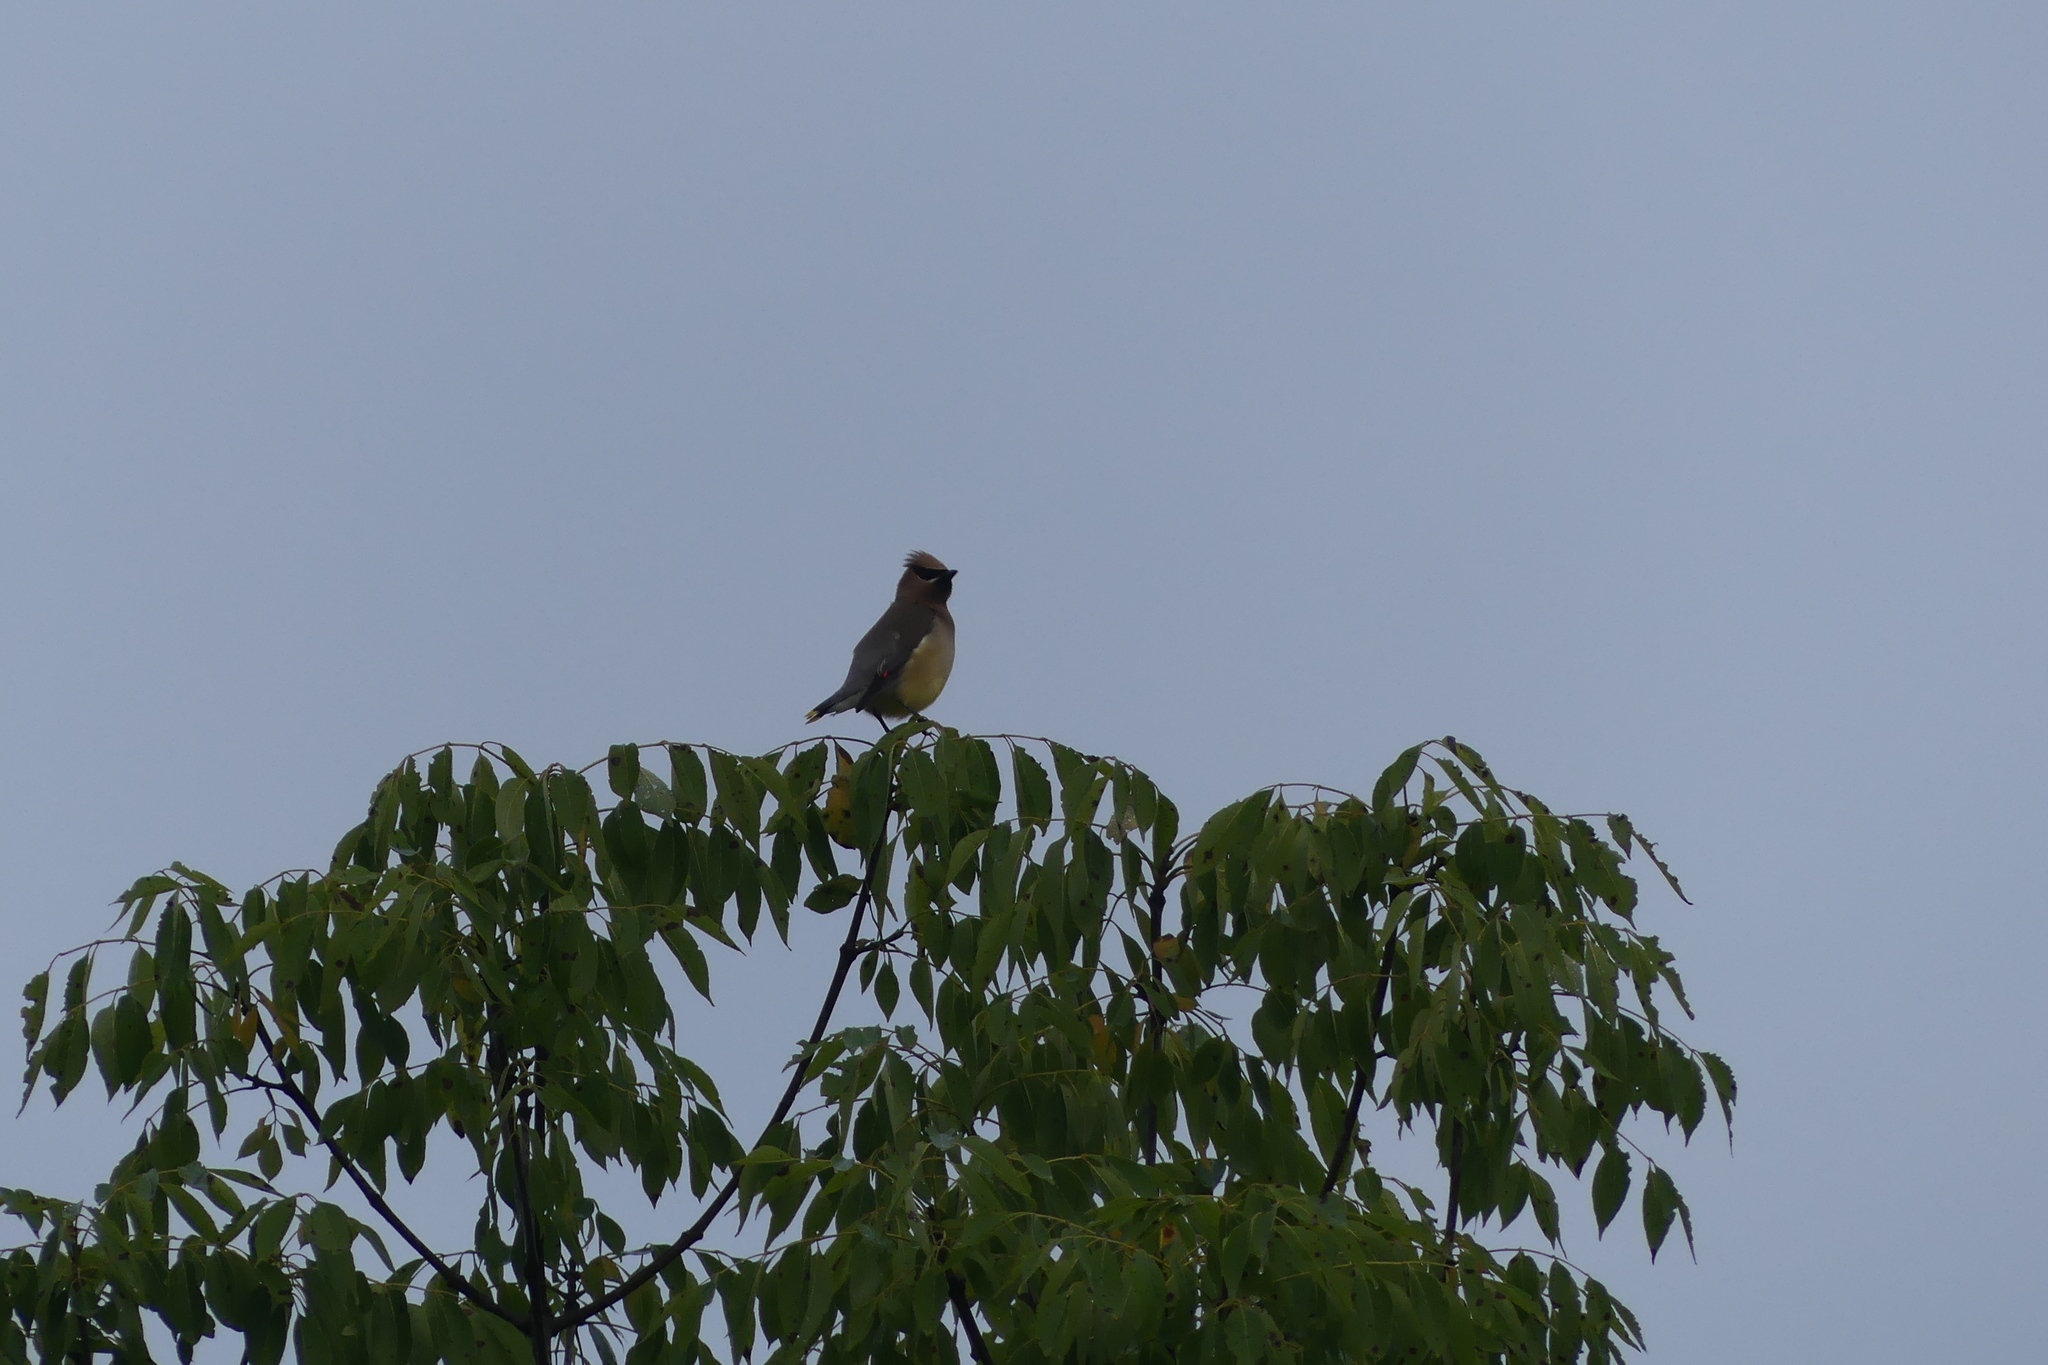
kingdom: Animalia
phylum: Chordata
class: Aves
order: Passeriformes
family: Bombycillidae
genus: Bombycilla
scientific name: Bombycilla cedrorum
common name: Cedar waxwing
